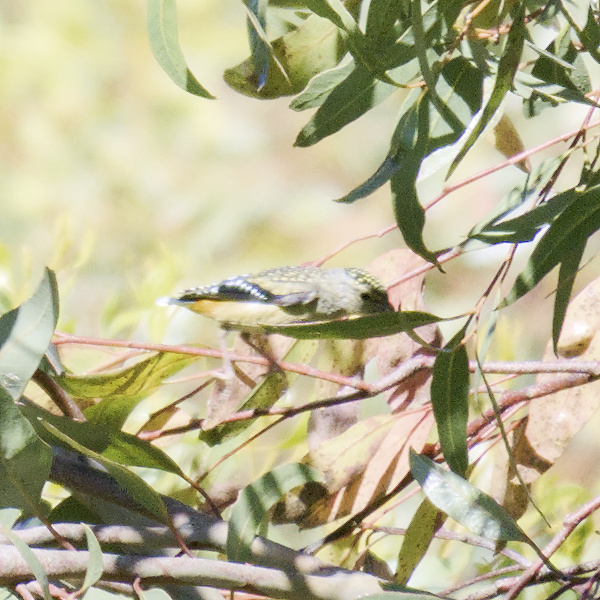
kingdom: Animalia
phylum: Chordata
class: Aves
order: Passeriformes
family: Pardalotidae
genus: Pardalotus
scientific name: Pardalotus punctatus
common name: Spotted pardalote
